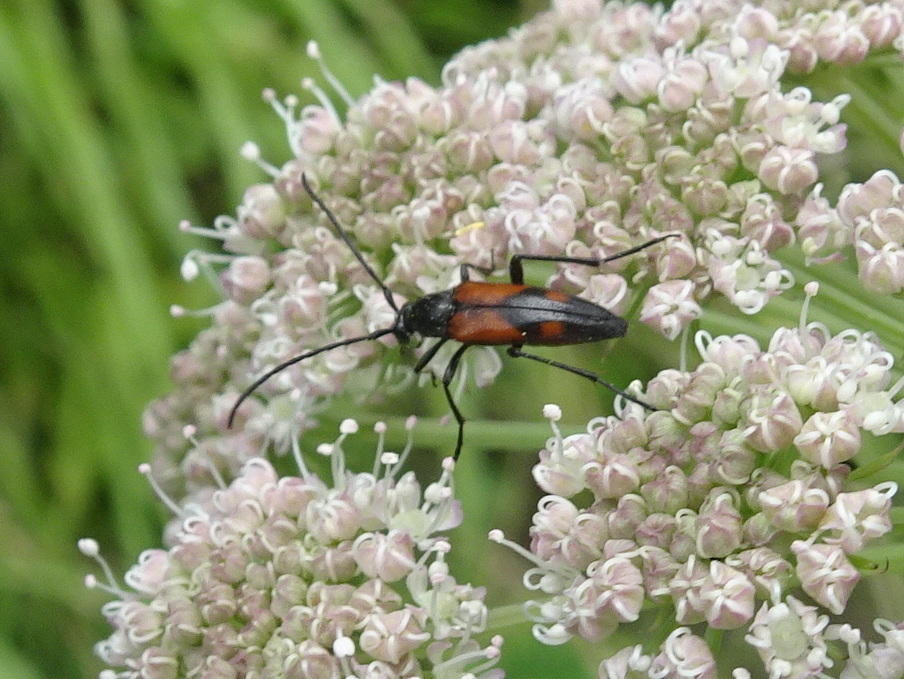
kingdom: Animalia
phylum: Arthropoda
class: Insecta
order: Coleoptera
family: Cerambycidae
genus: Stenurella
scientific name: Stenurella bifasciata
